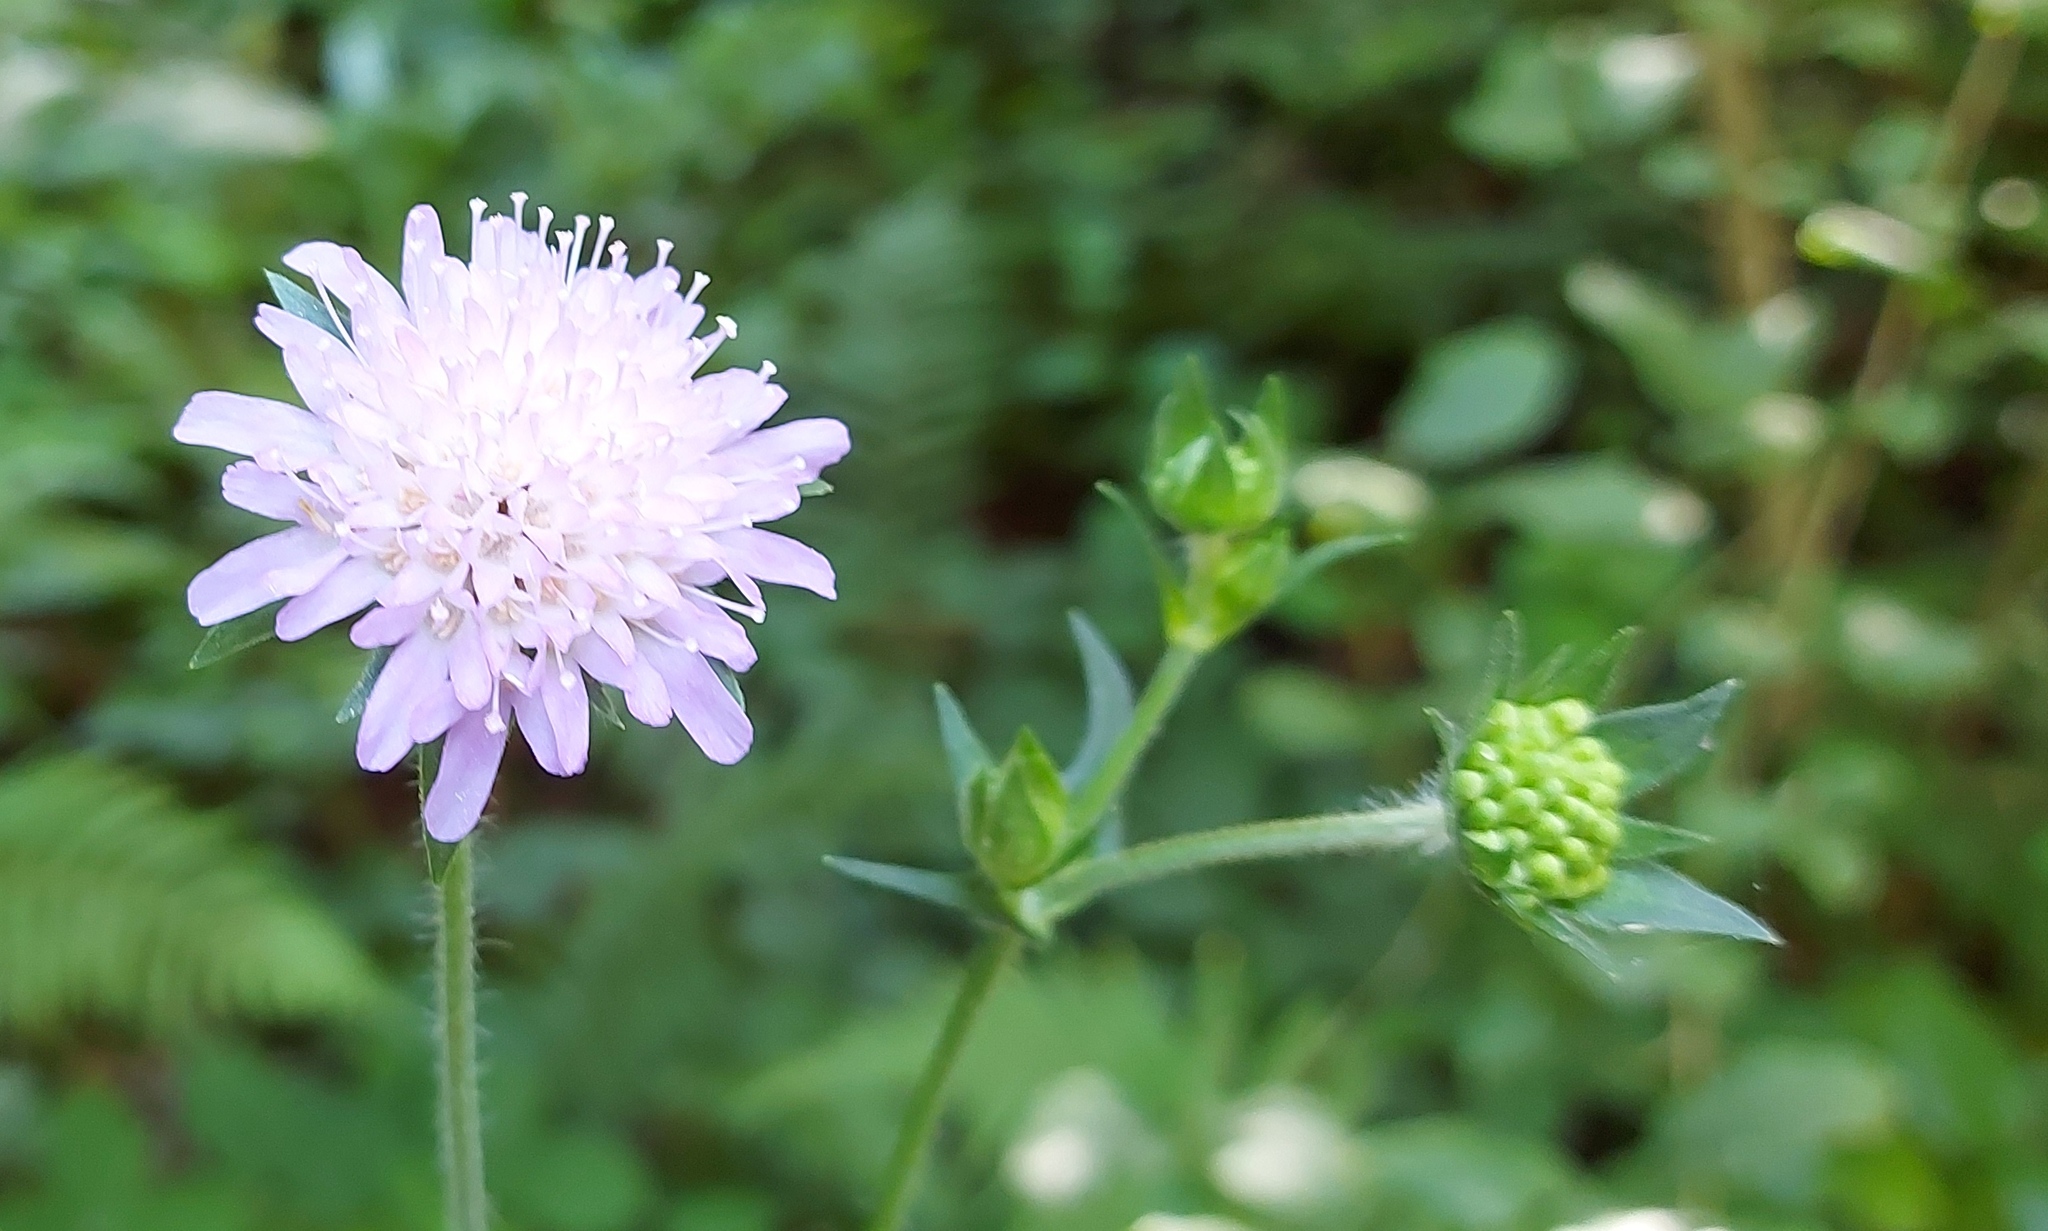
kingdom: Plantae
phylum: Tracheophyta
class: Magnoliopsida
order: Dipsacales
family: Caprifoliaceae
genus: Knautia
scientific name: Knautia arvensis
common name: Field scabiosa
